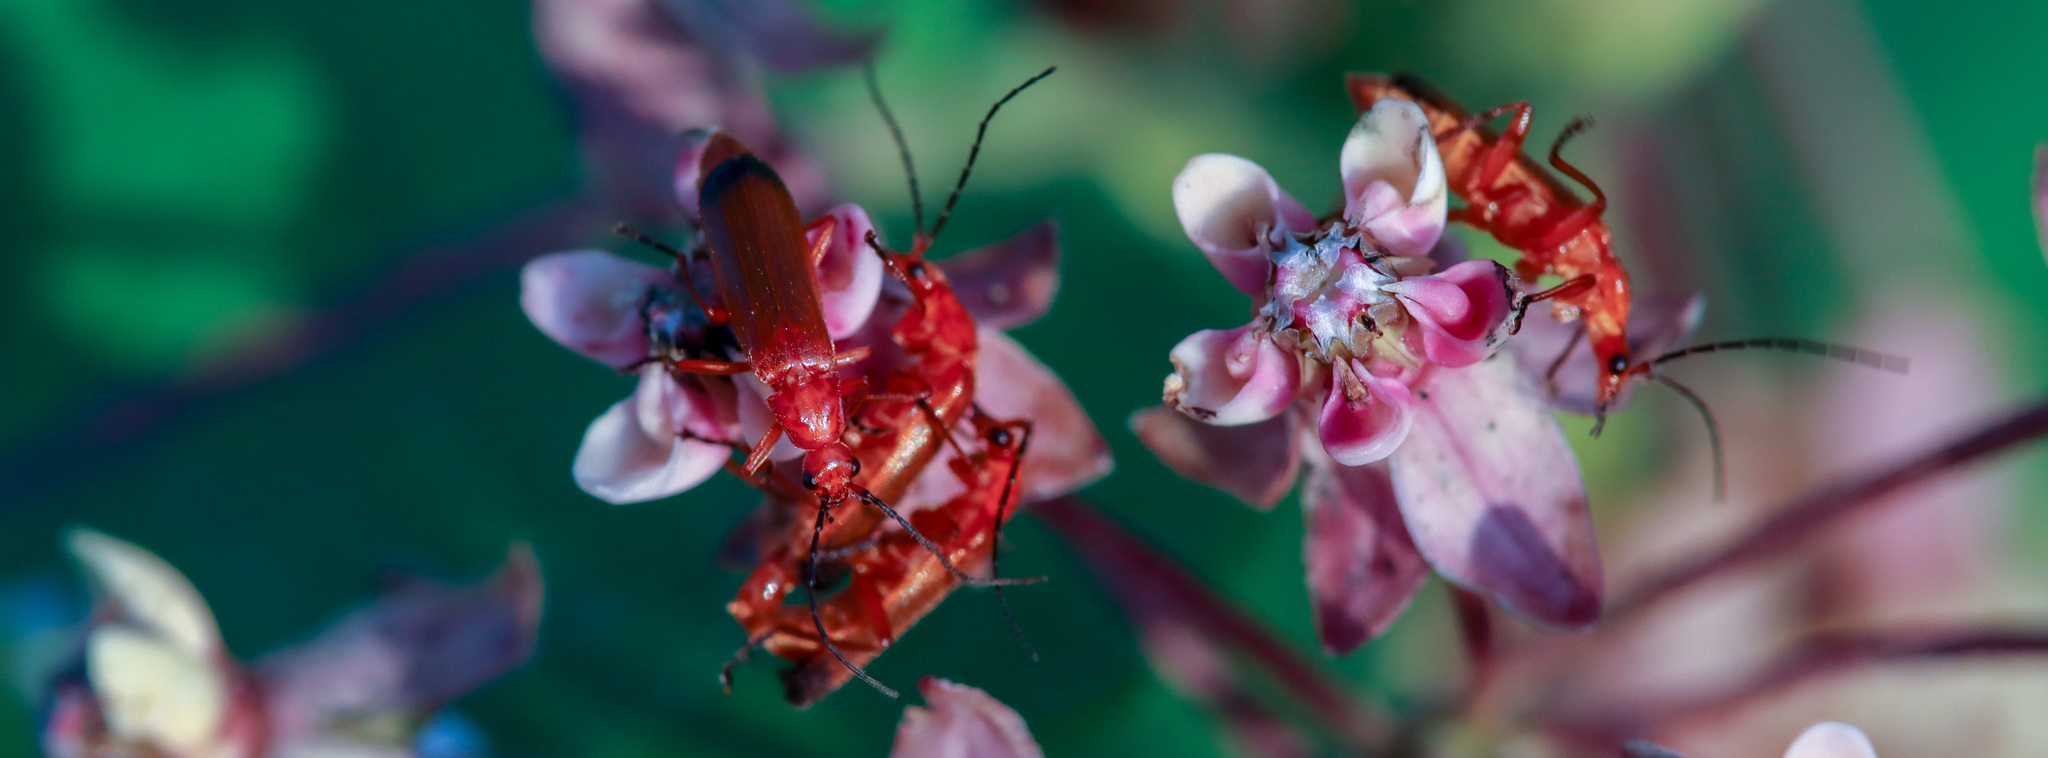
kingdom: Animalia
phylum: Arthropoda
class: Insecta
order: Coleoptera
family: Cantharidae
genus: Rhagonycha
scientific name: Rhagonycha fulva
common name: Common red soldier beetle
